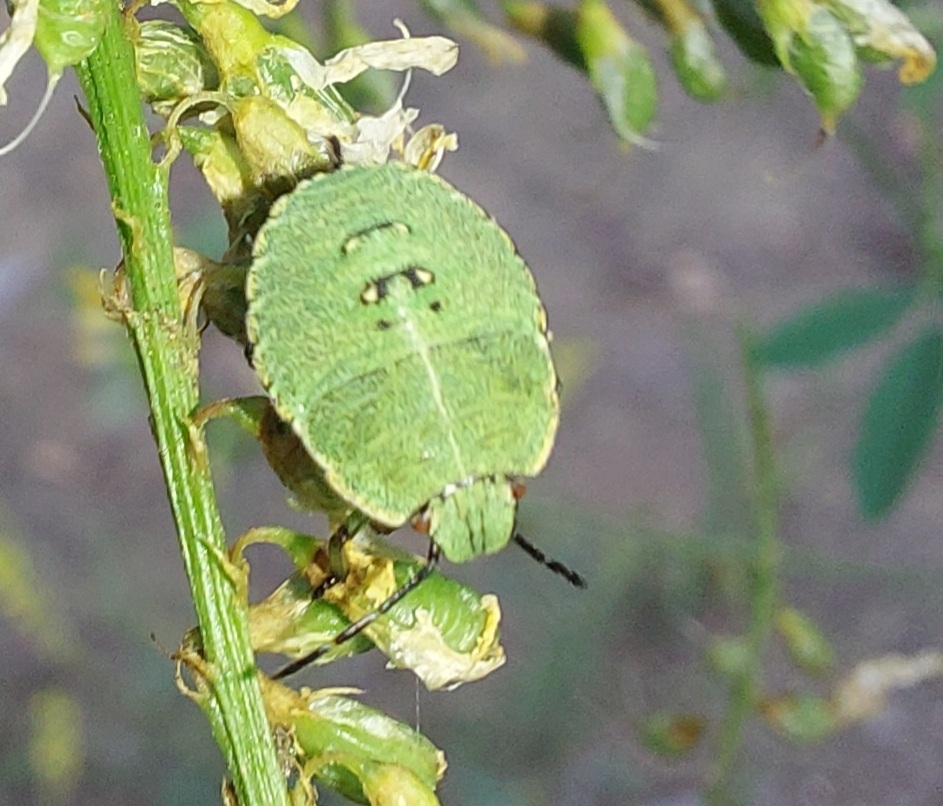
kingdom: Animalia
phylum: Arthropoda
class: Insecta
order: Hemiptera
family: Pentatomidae
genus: Palomena
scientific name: Palomena prasina
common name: Green shieldbug
